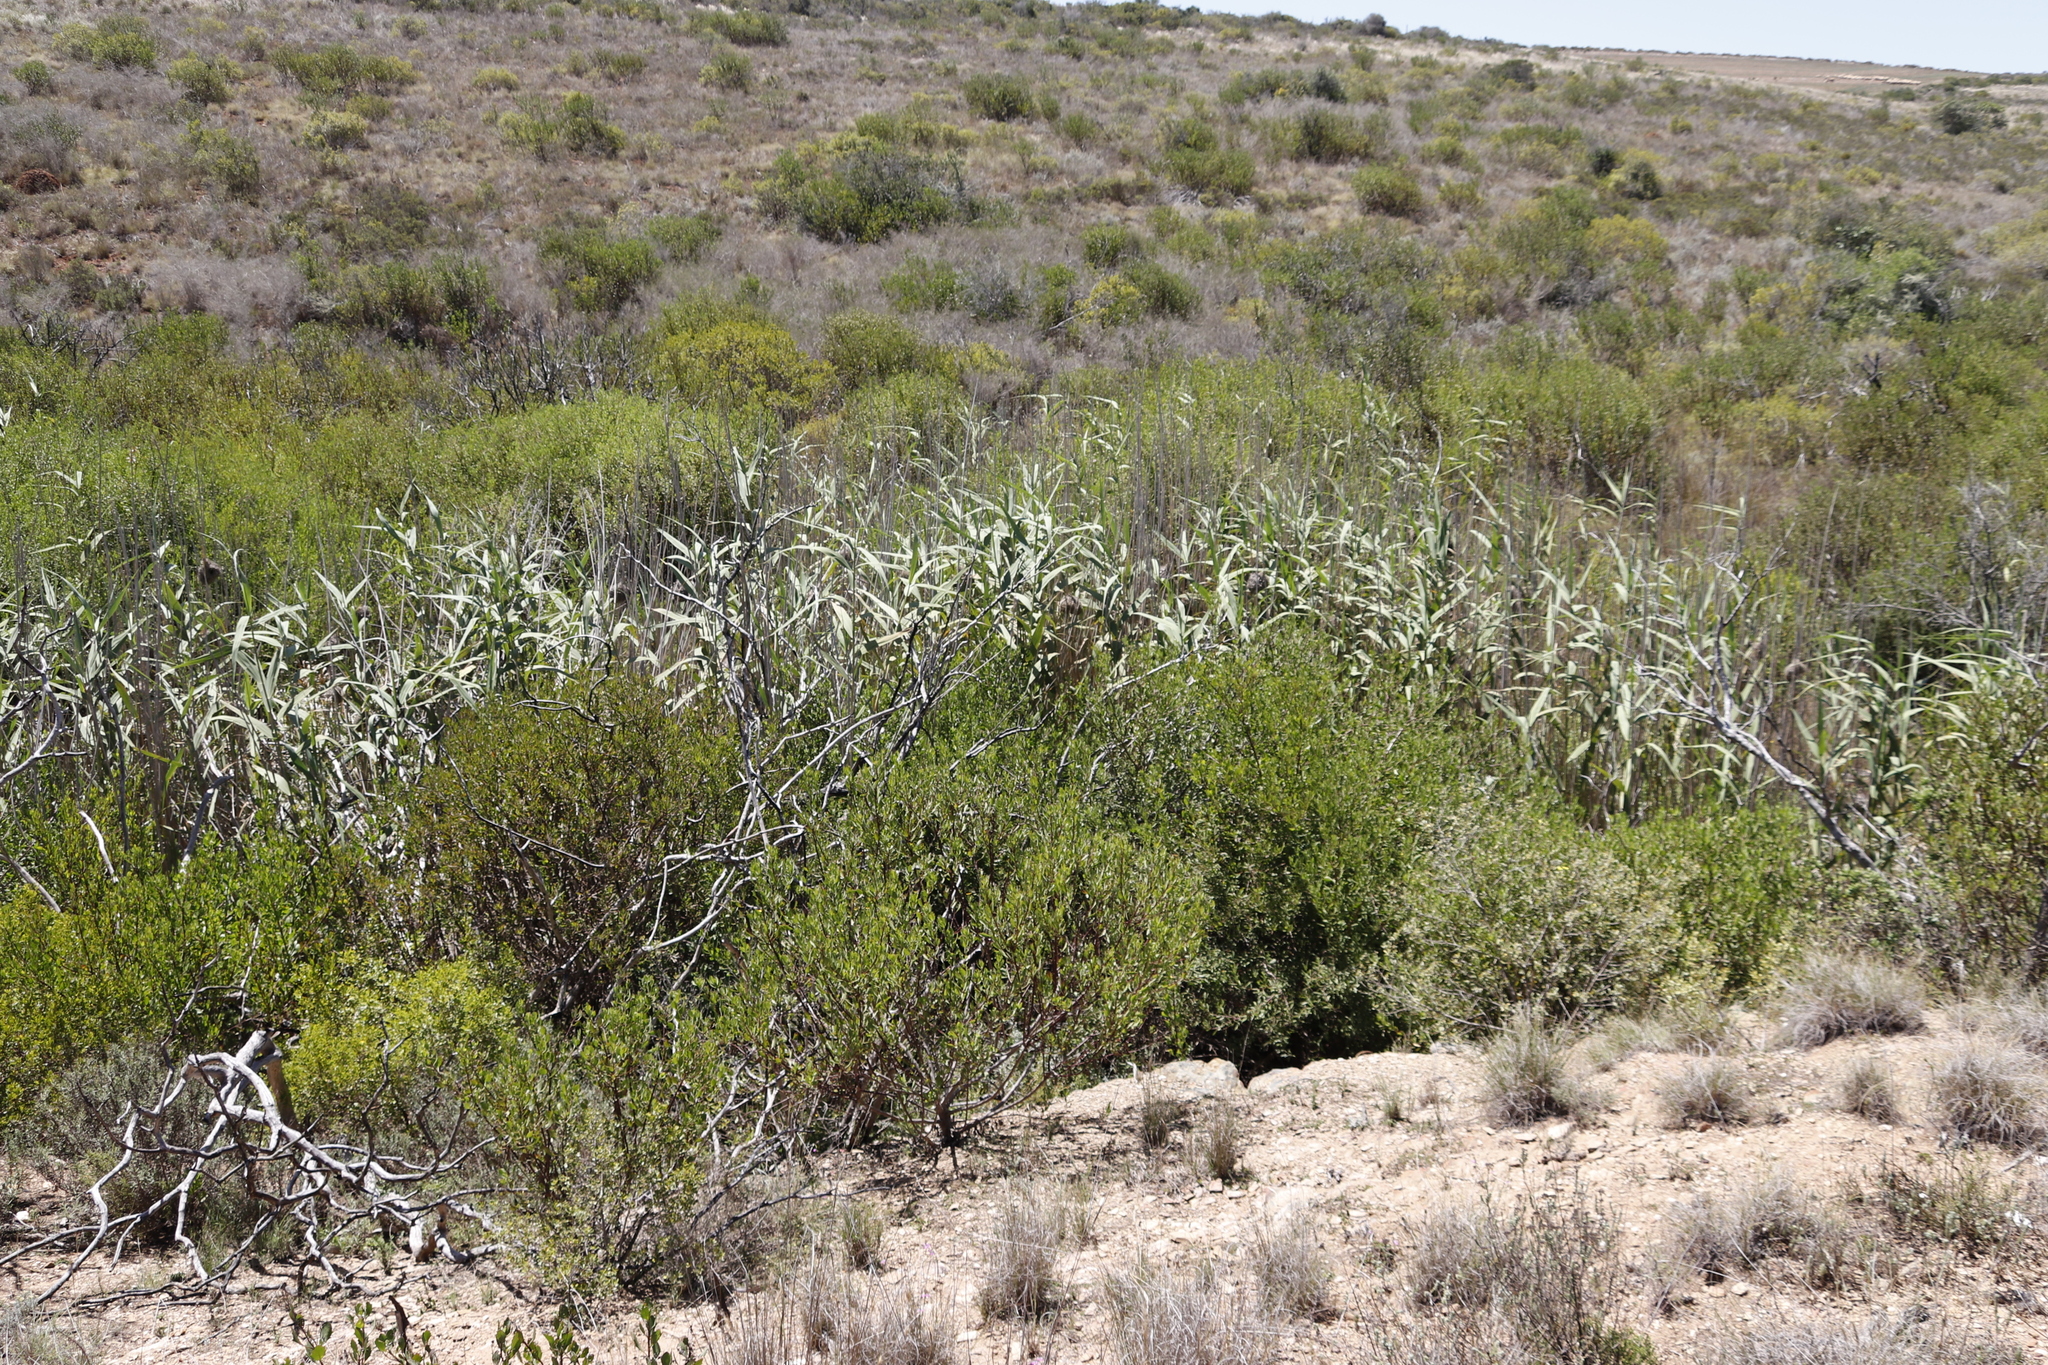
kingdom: Plantae
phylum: Tracheophyta
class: Liliopsida
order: Poales
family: Poaceae
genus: Phragmites
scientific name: Phragmites australis
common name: Common reed
